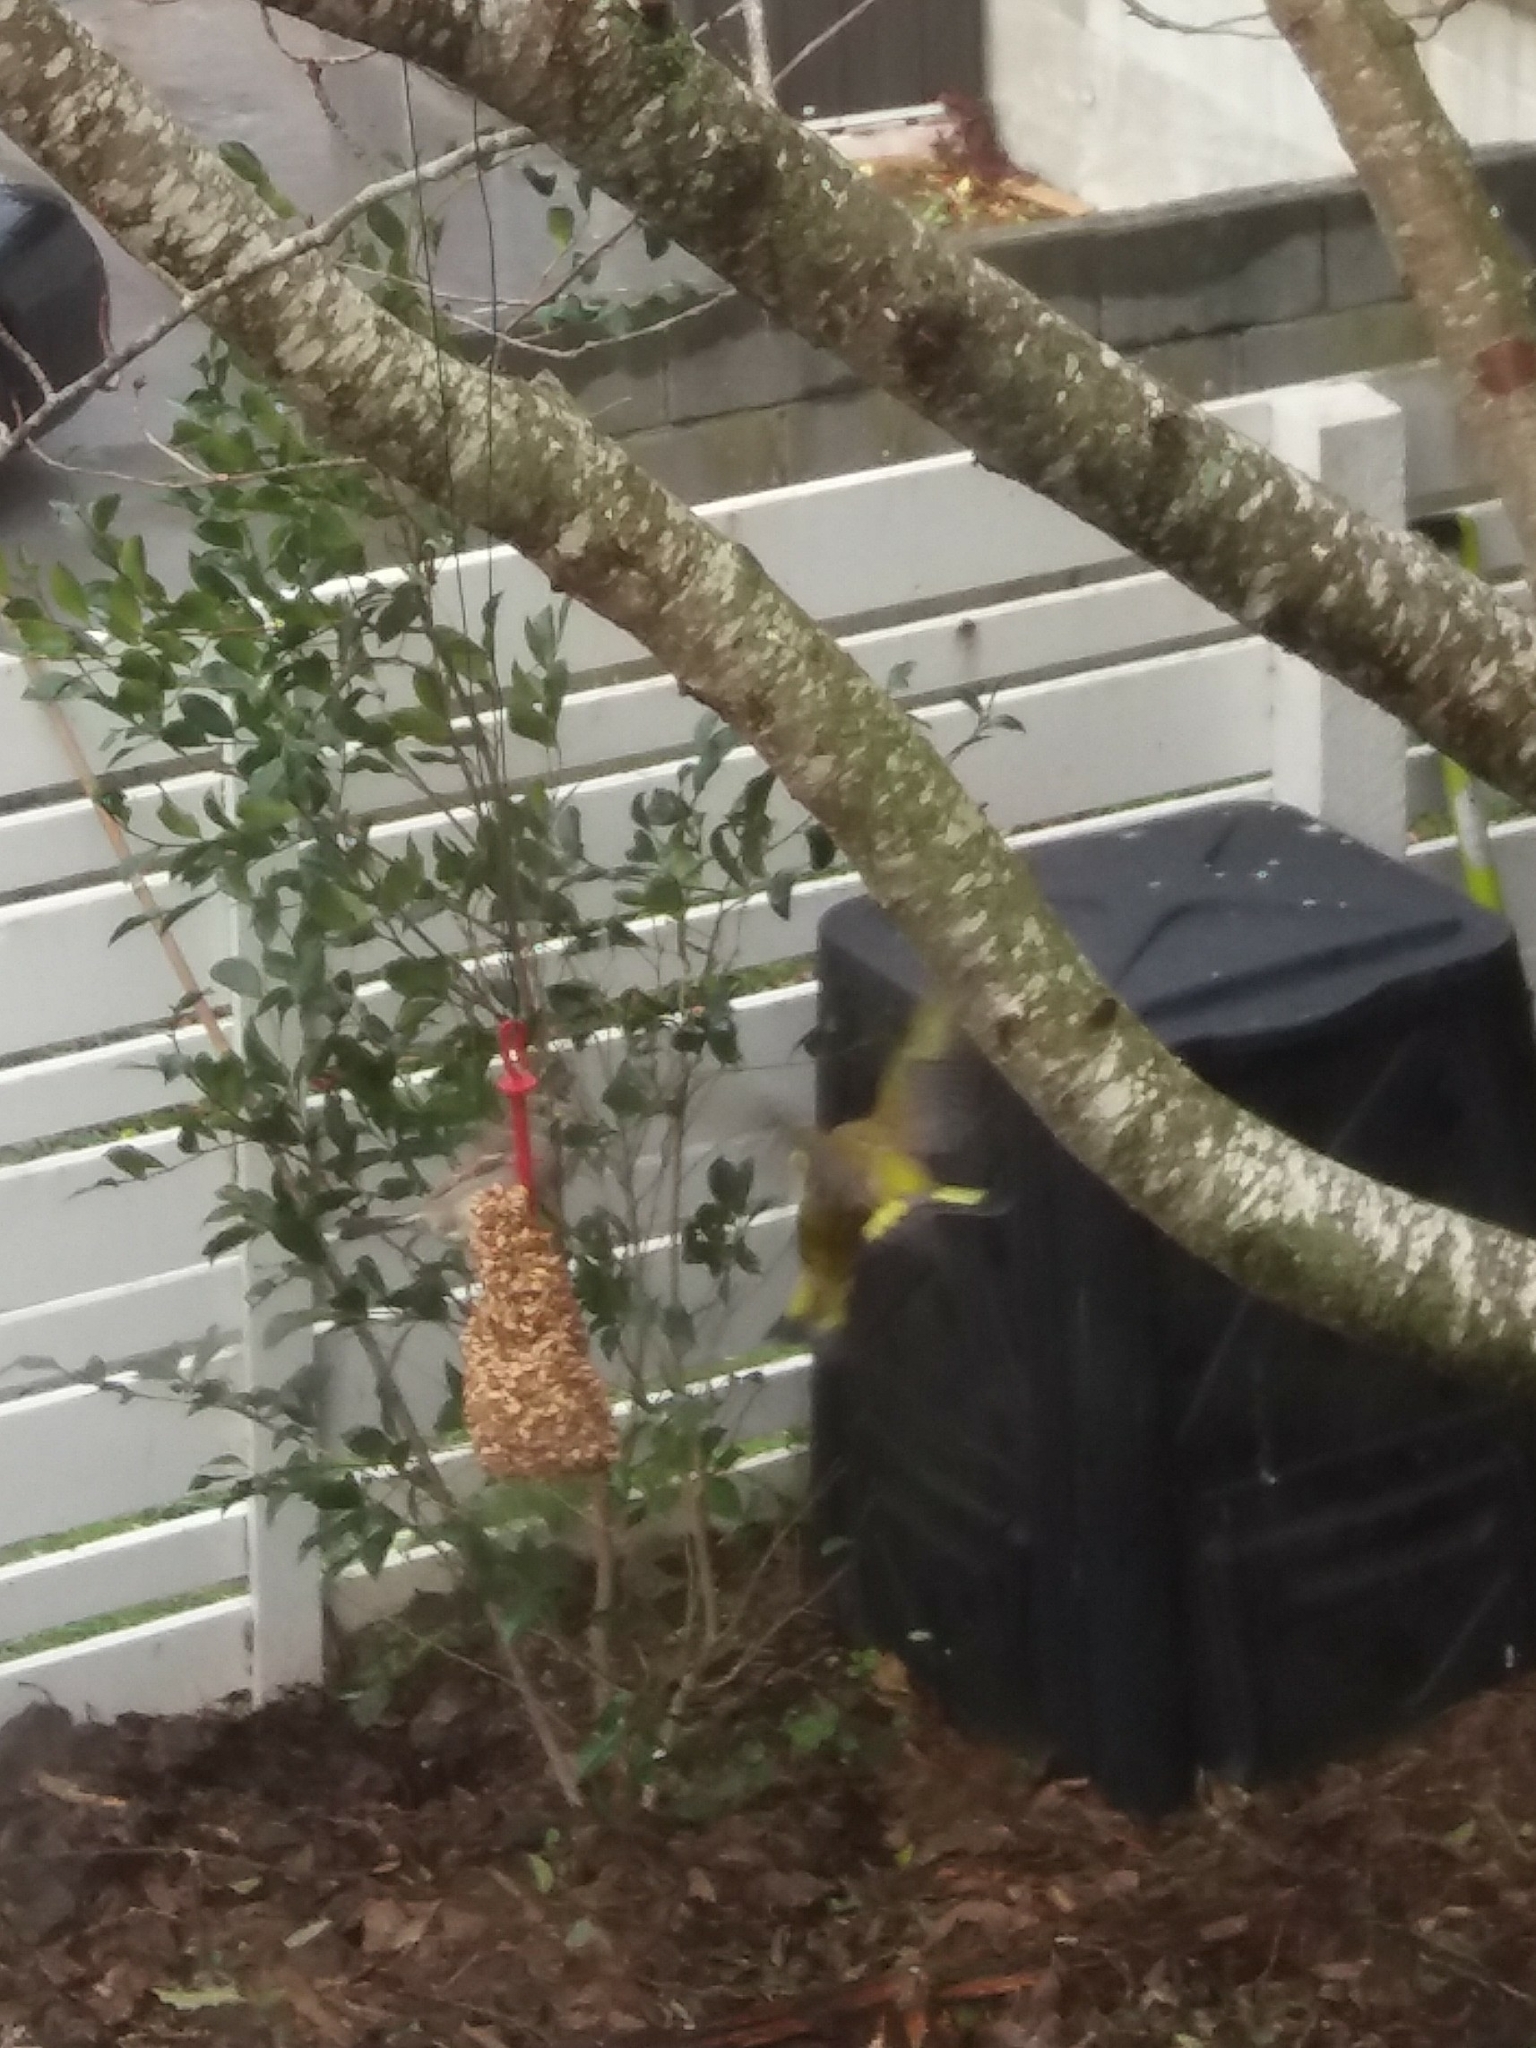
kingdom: Plantae
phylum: Tracheophyta
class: Liliopsida
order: Poales
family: Poaceae
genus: Chloris
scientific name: Chloris chloris
